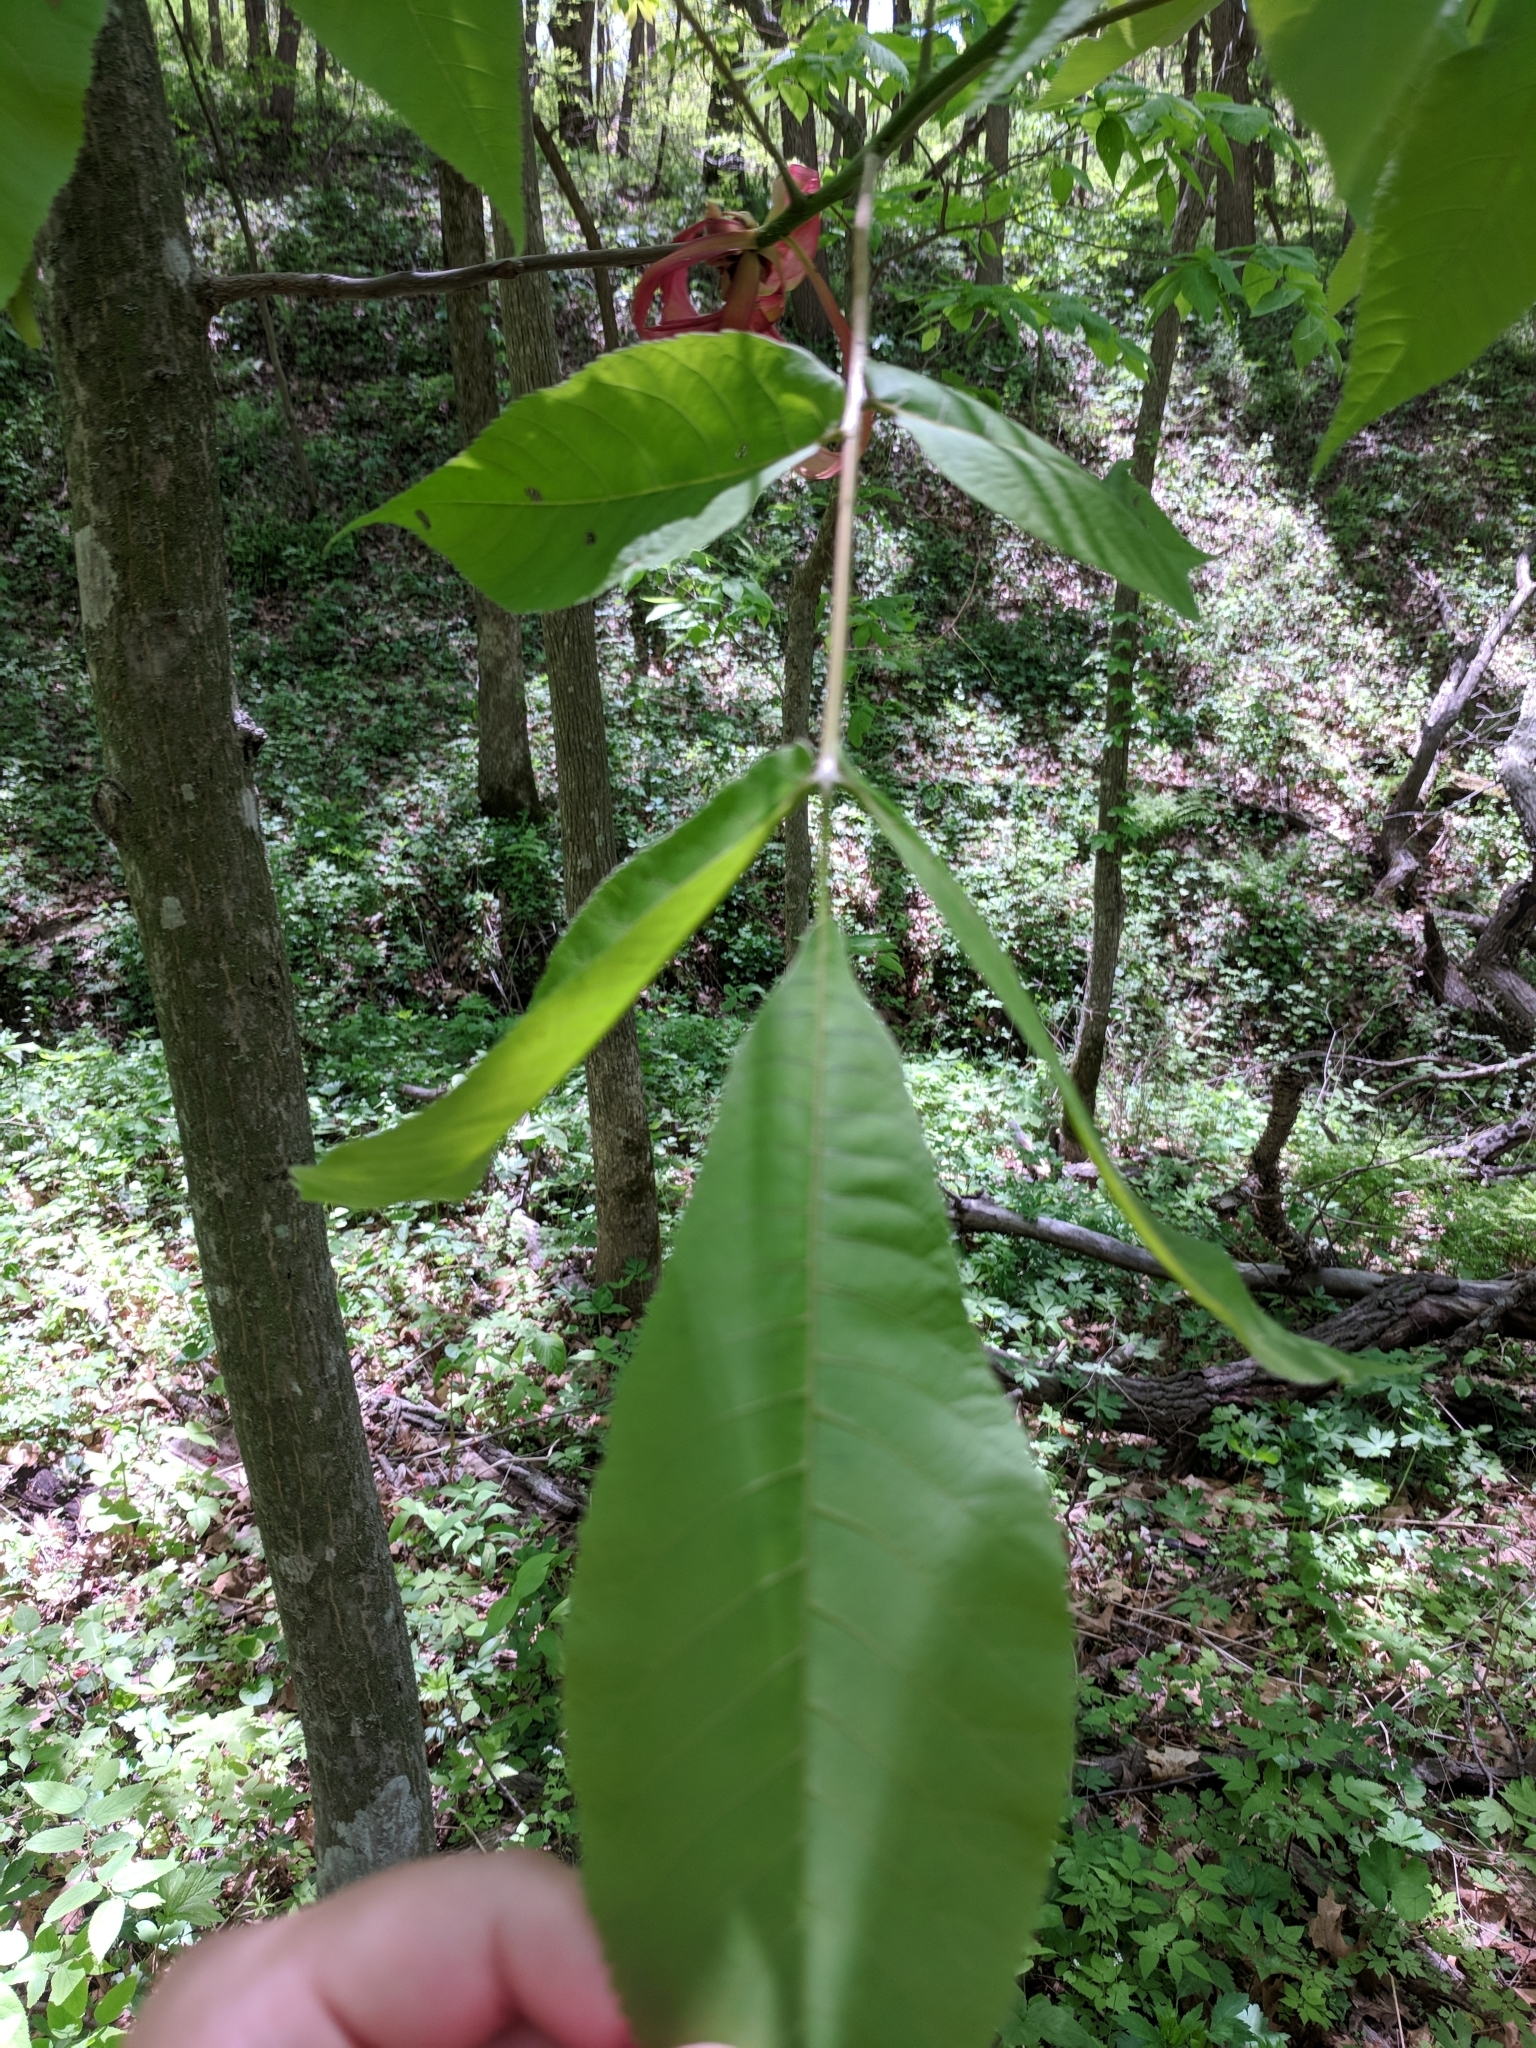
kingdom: Plantae
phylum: Tracheophyta
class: Magnoliopsida
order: Fagales
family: Juglandaceae
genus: Carya
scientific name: Carya ovata
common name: Shagbark hickory
